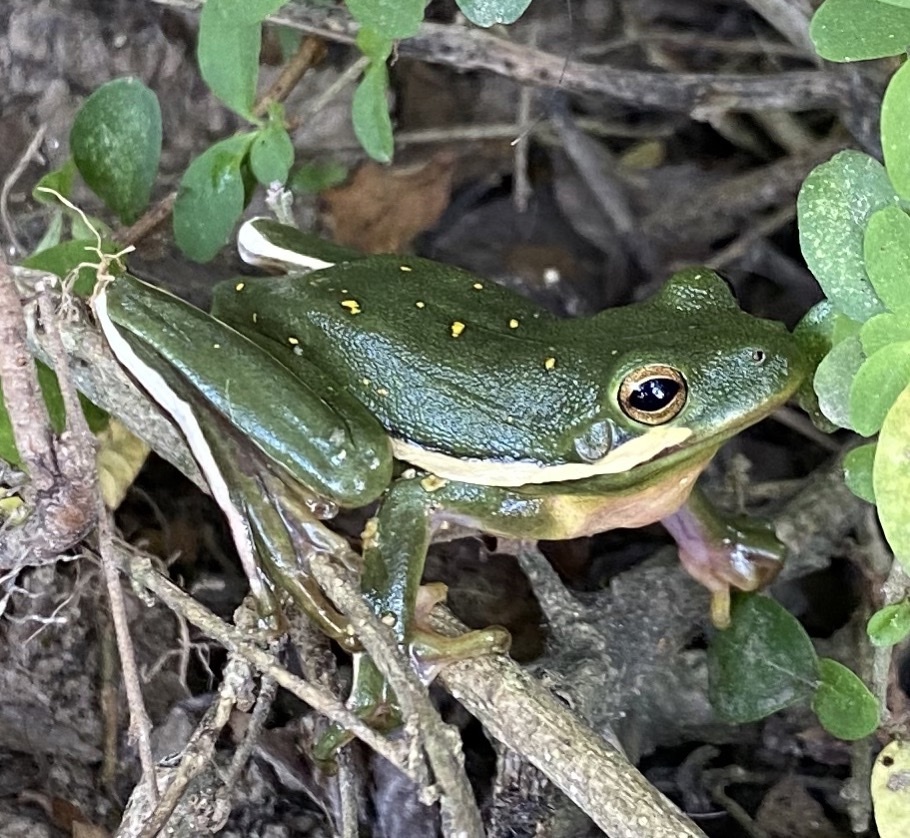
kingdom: Animalia
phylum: Chordata
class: Amphibia
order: Anura
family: Hylidae
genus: Dryophytes
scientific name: Dryophytes cinereus
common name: Green treefrog
